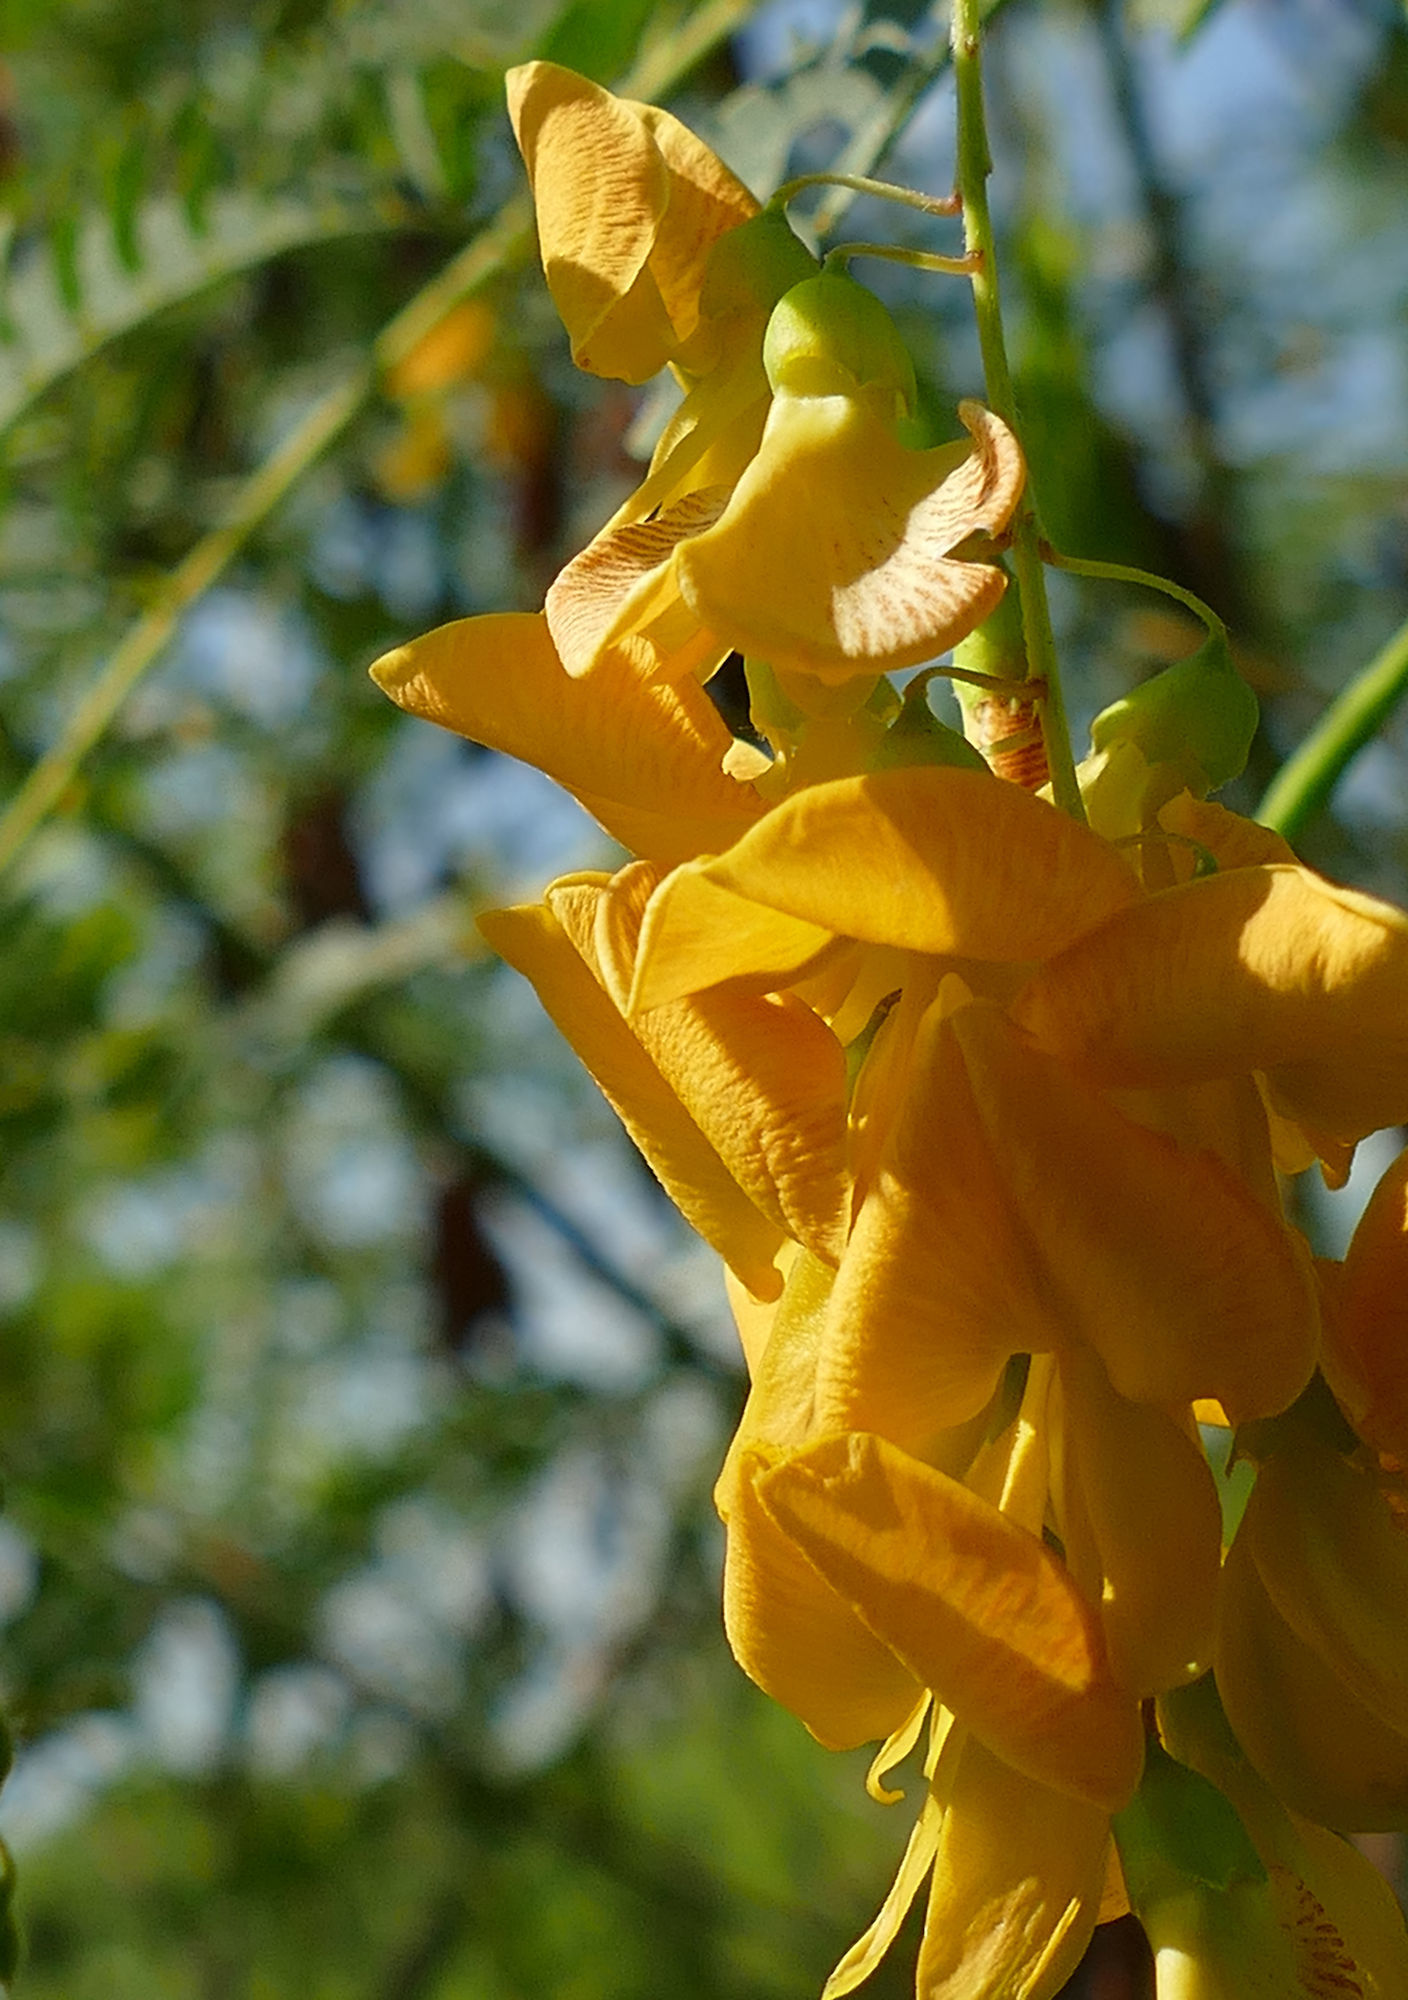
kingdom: Plantae
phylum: Tracheophyta
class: Magnoliopsida
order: Fabales
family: Fabaceae
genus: Sesbania
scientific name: Sesbania drummondii
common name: Poison-bean
